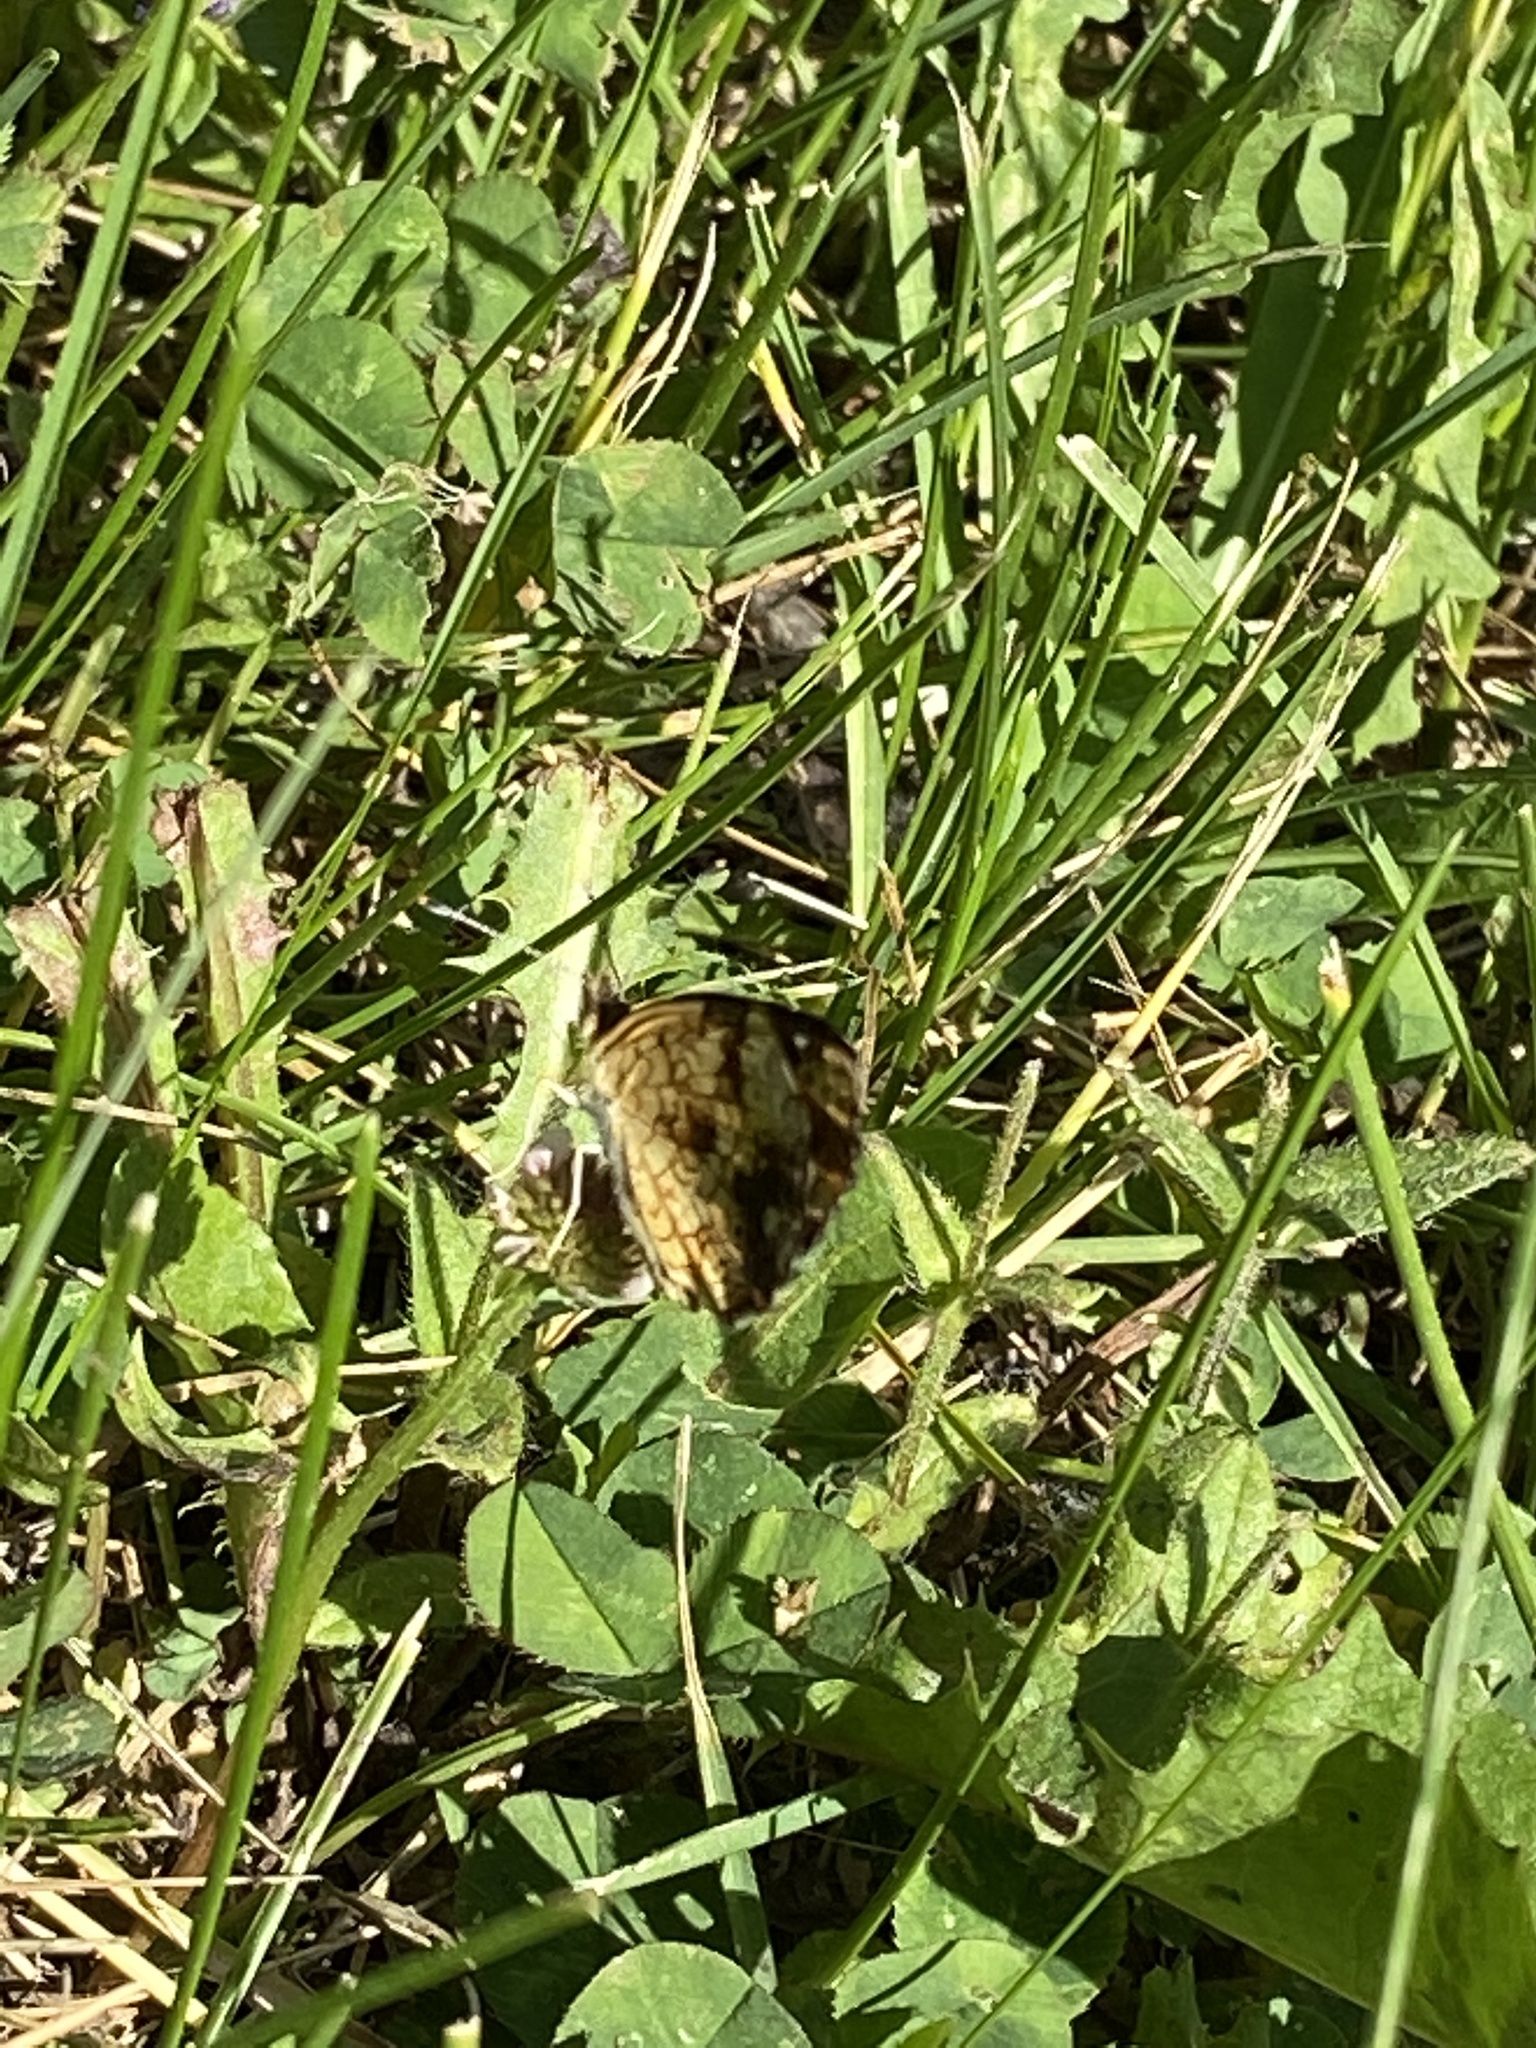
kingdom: Animalia
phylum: Arthropoda
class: Insecta
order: Lepidoptera
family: Nymphalidae
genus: Phyciodes
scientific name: Phyciodes tharos
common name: Pearl crescent
